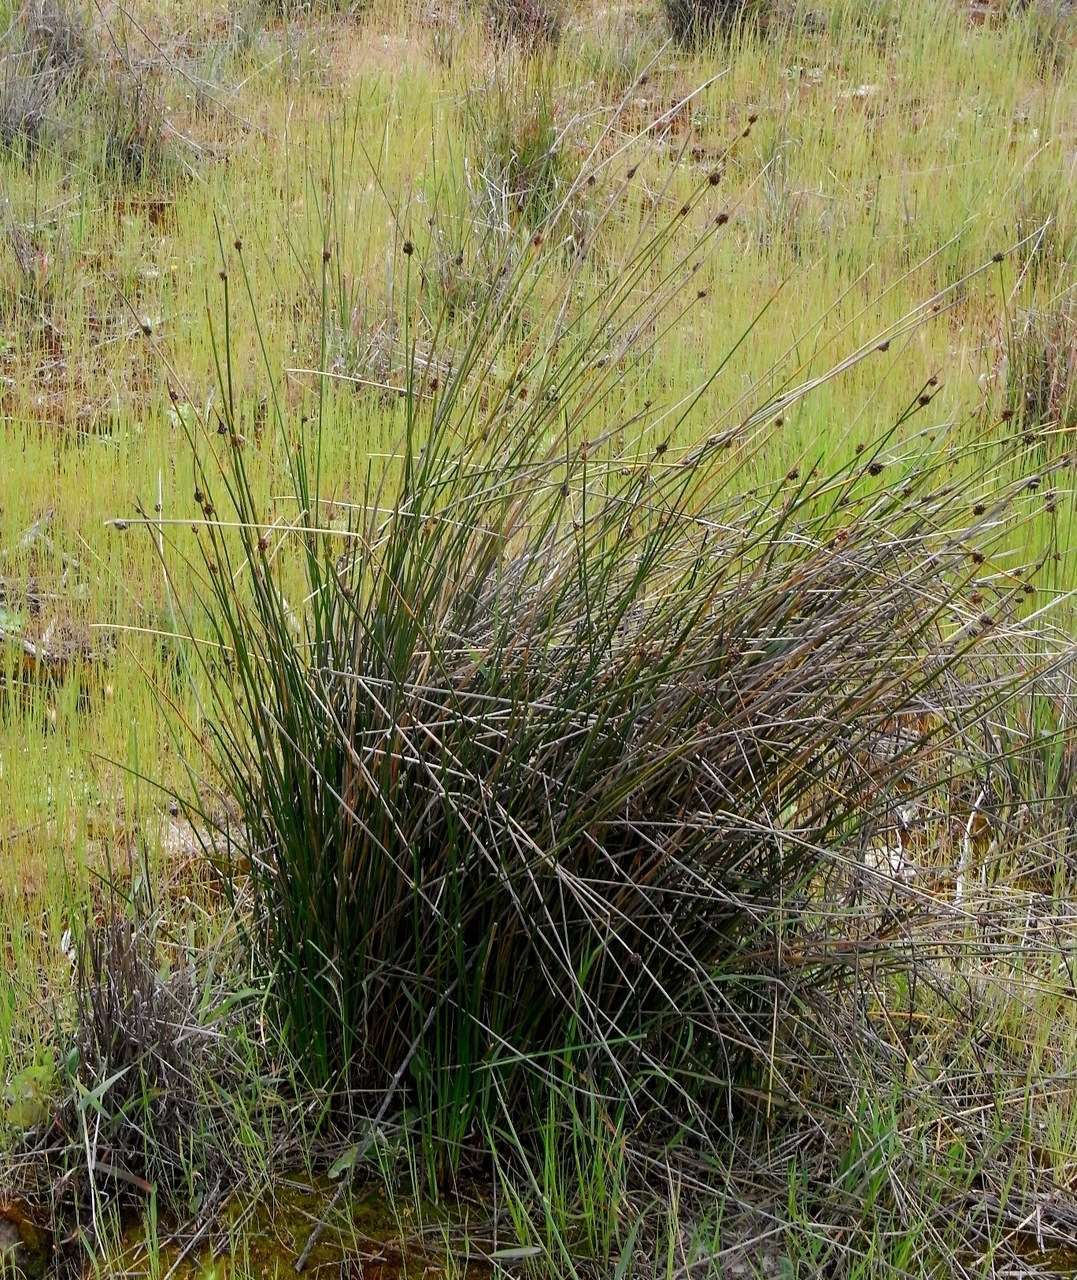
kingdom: Plantae
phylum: Tracheophyta
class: Liliopsida
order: Poales
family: Cyperaceae
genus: Ficinia
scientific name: Ficinia nodosa
